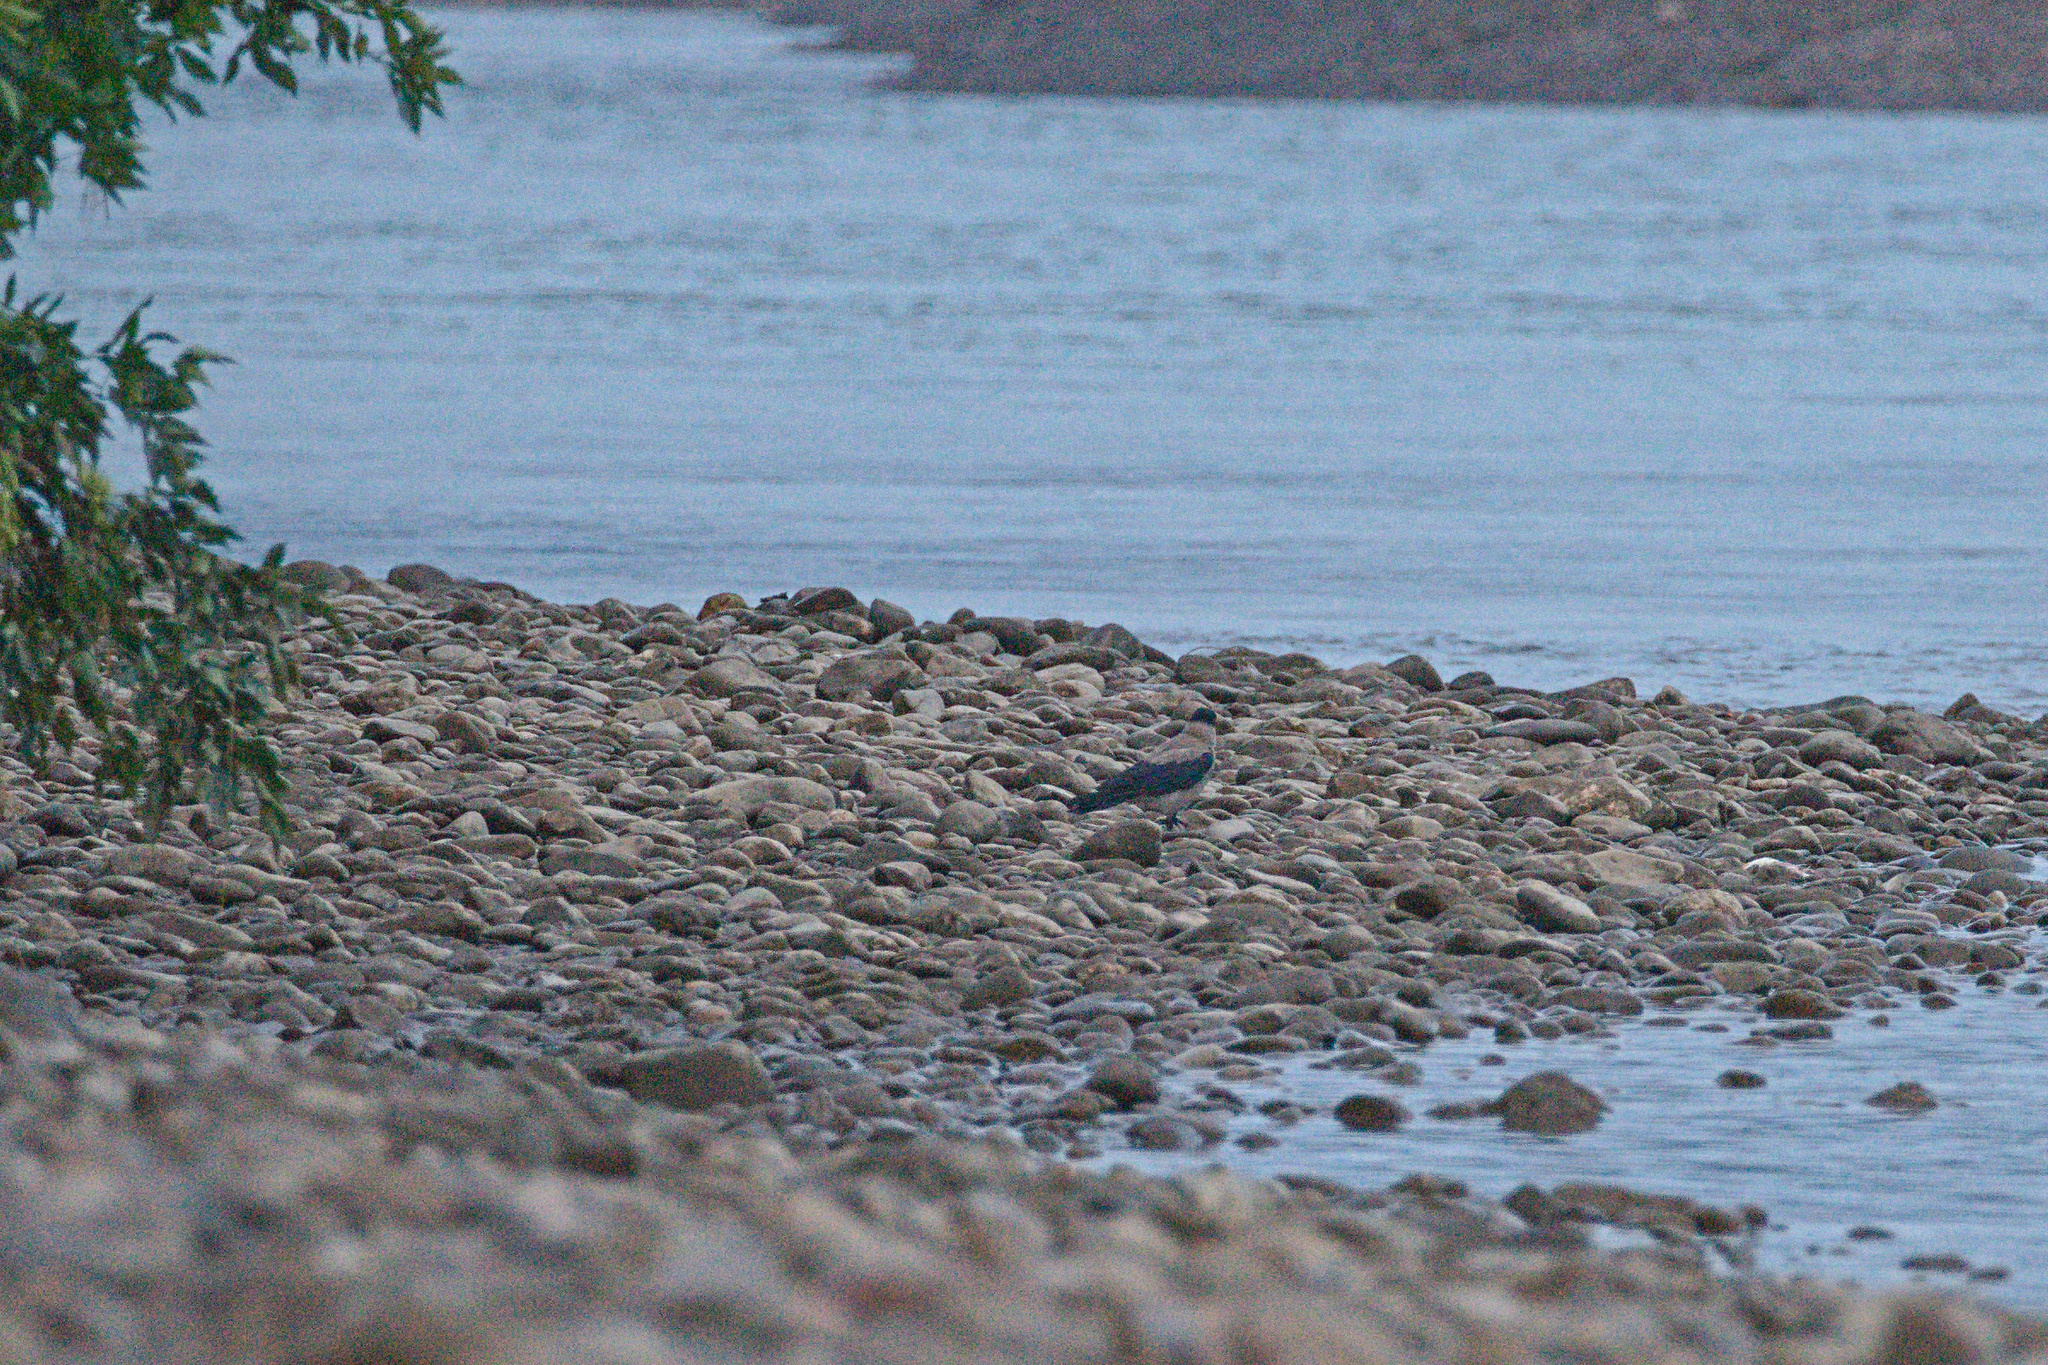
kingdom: Animalia
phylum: Chordata
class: Aves
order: Passeriformes
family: Corvidae
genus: Corvus
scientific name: Corvus cornix
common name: Hooded crow
